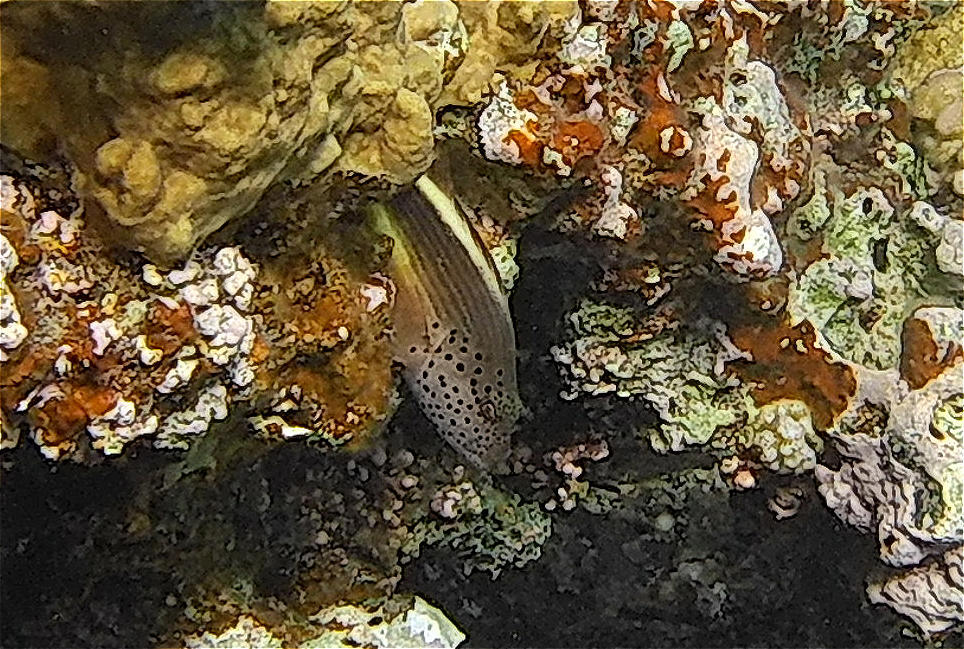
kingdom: Animalia
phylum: Chordata
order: Perciformes
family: Cirrhitidae
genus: Paracirrhites
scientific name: Paracirrhites forsteri
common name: Freckled hawkfish
